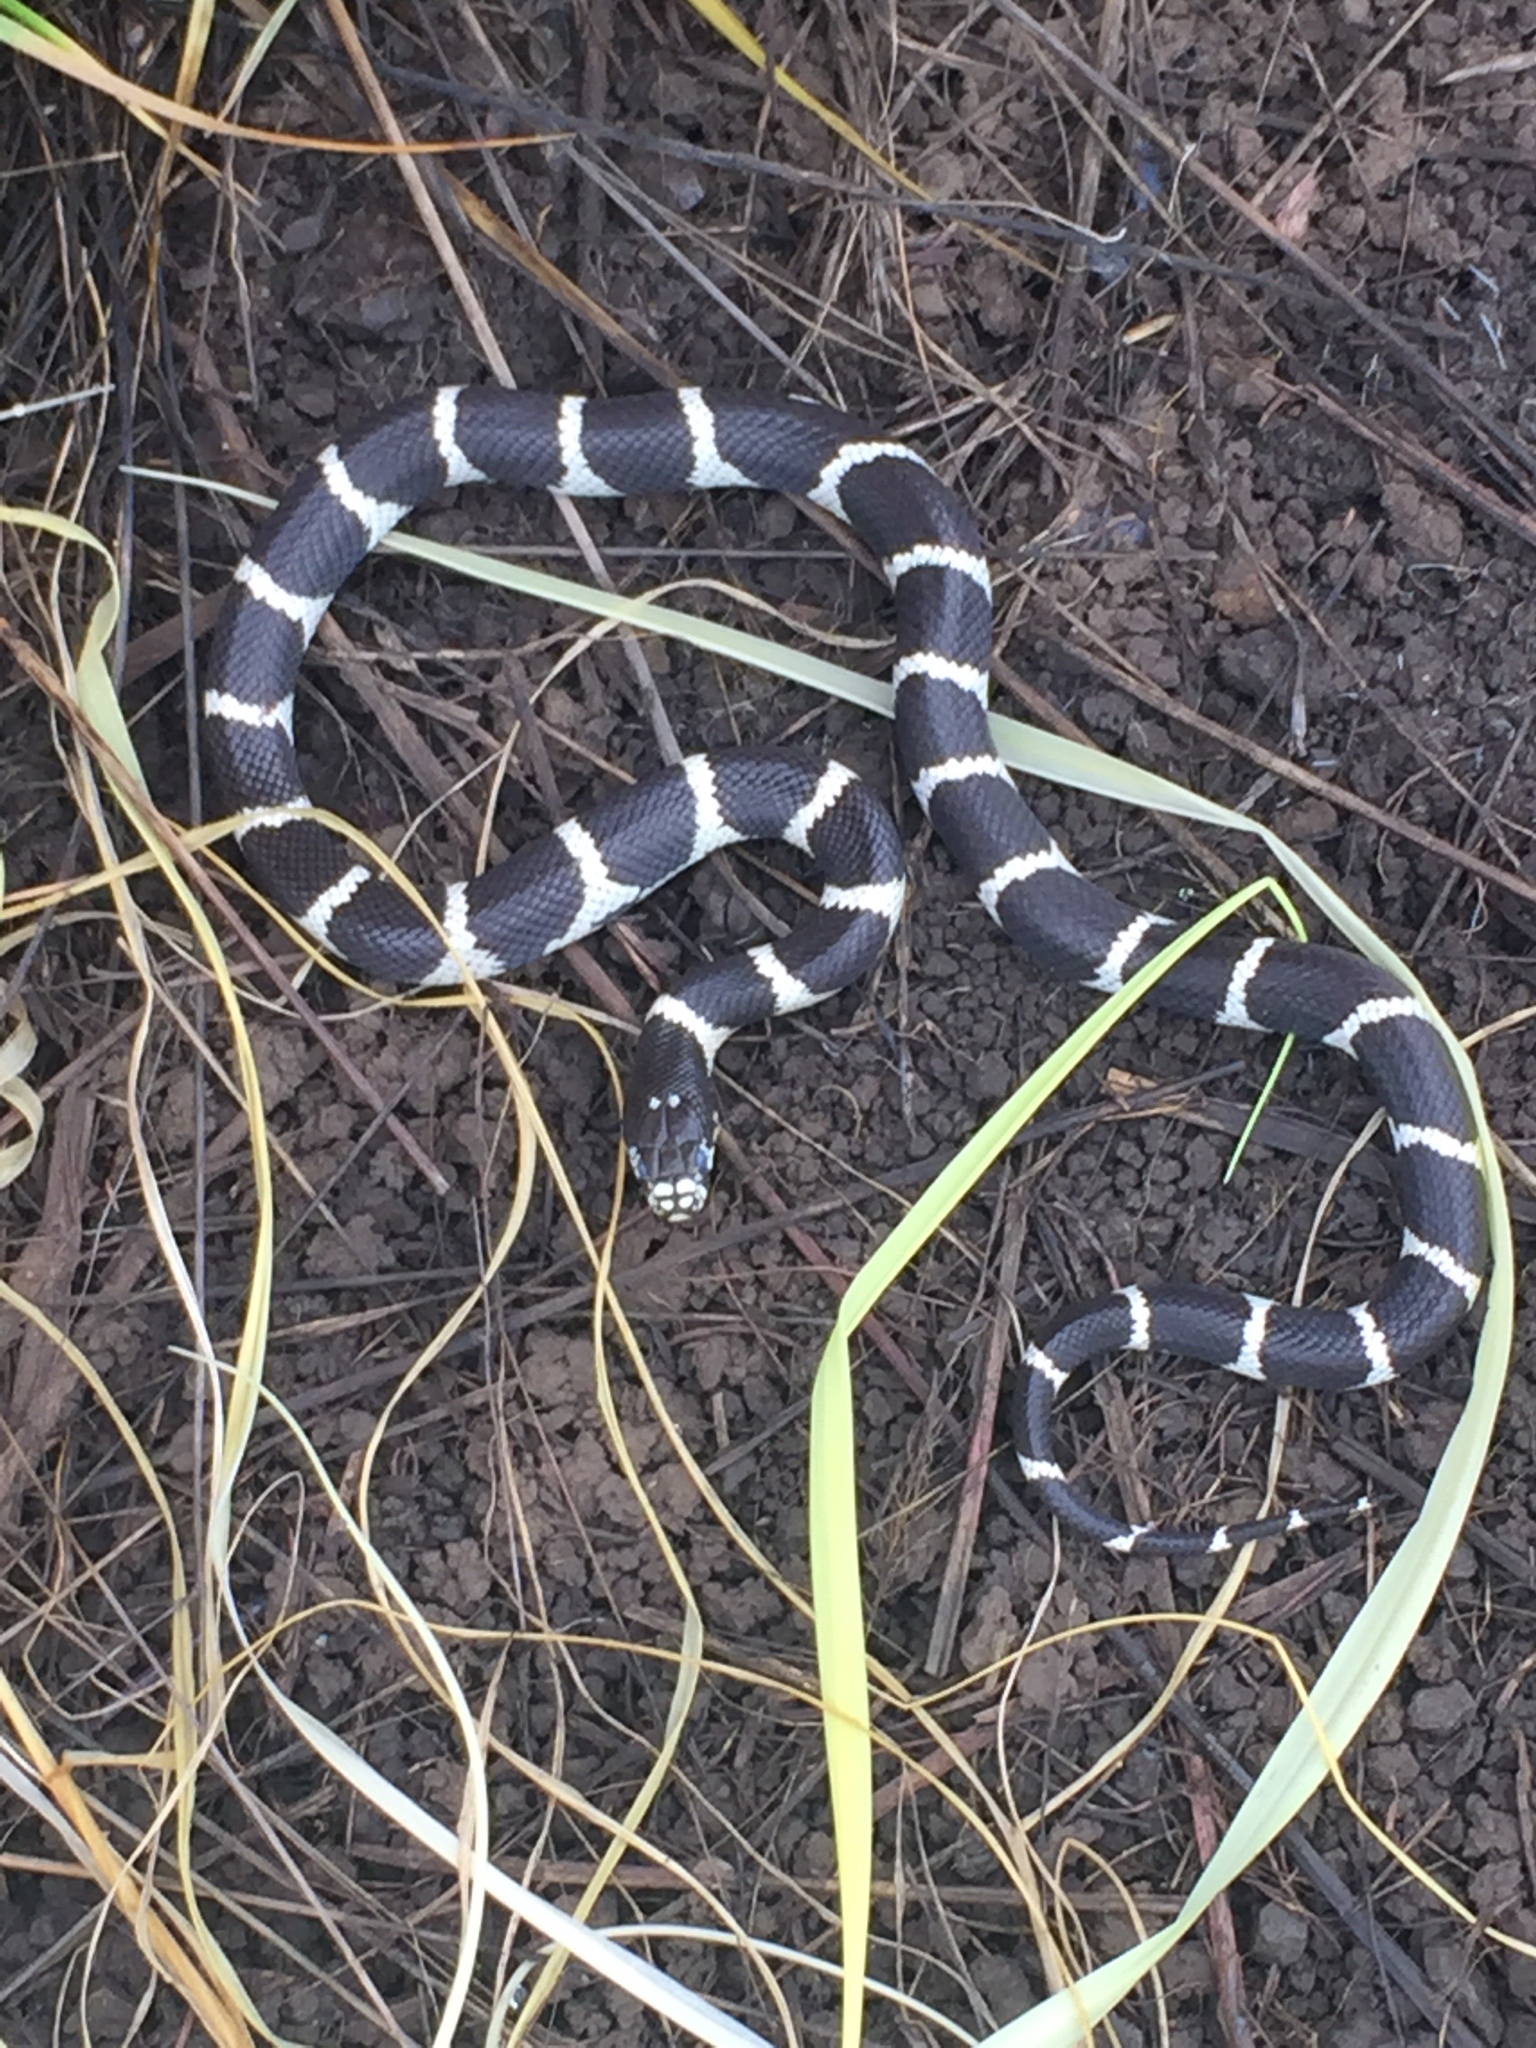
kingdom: Animalia
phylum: Chordata
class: Squamata
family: Colubridae
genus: Lampropeltis
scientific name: Lampropeltis californiae
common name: California kingsnake
